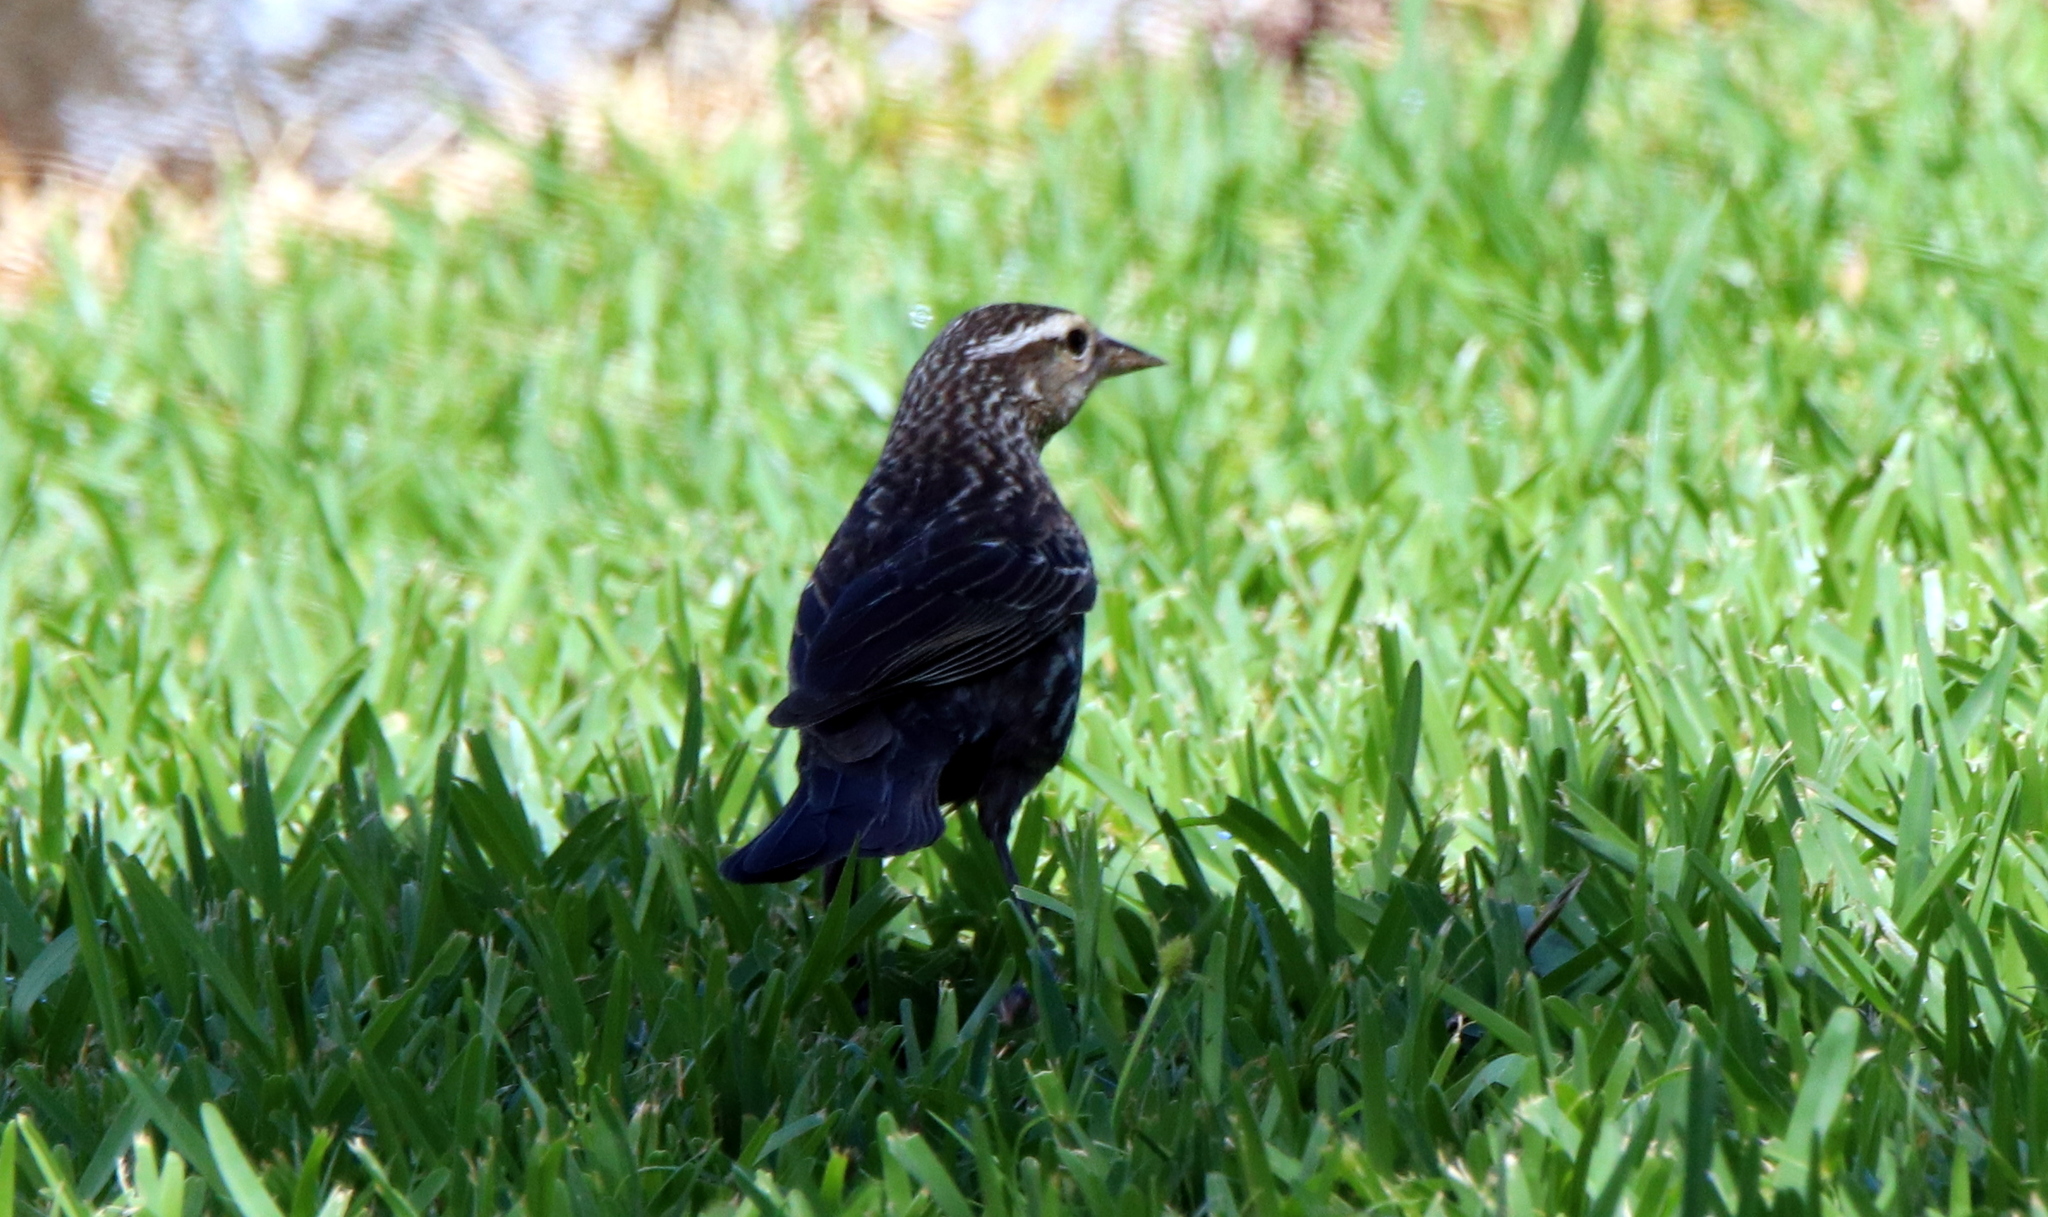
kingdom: Animalia
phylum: Chordata
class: Aves
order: Passeriformes
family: Icteridae
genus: Agelaius
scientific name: Agelaius phoeniceus
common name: Red-winged blackbird
